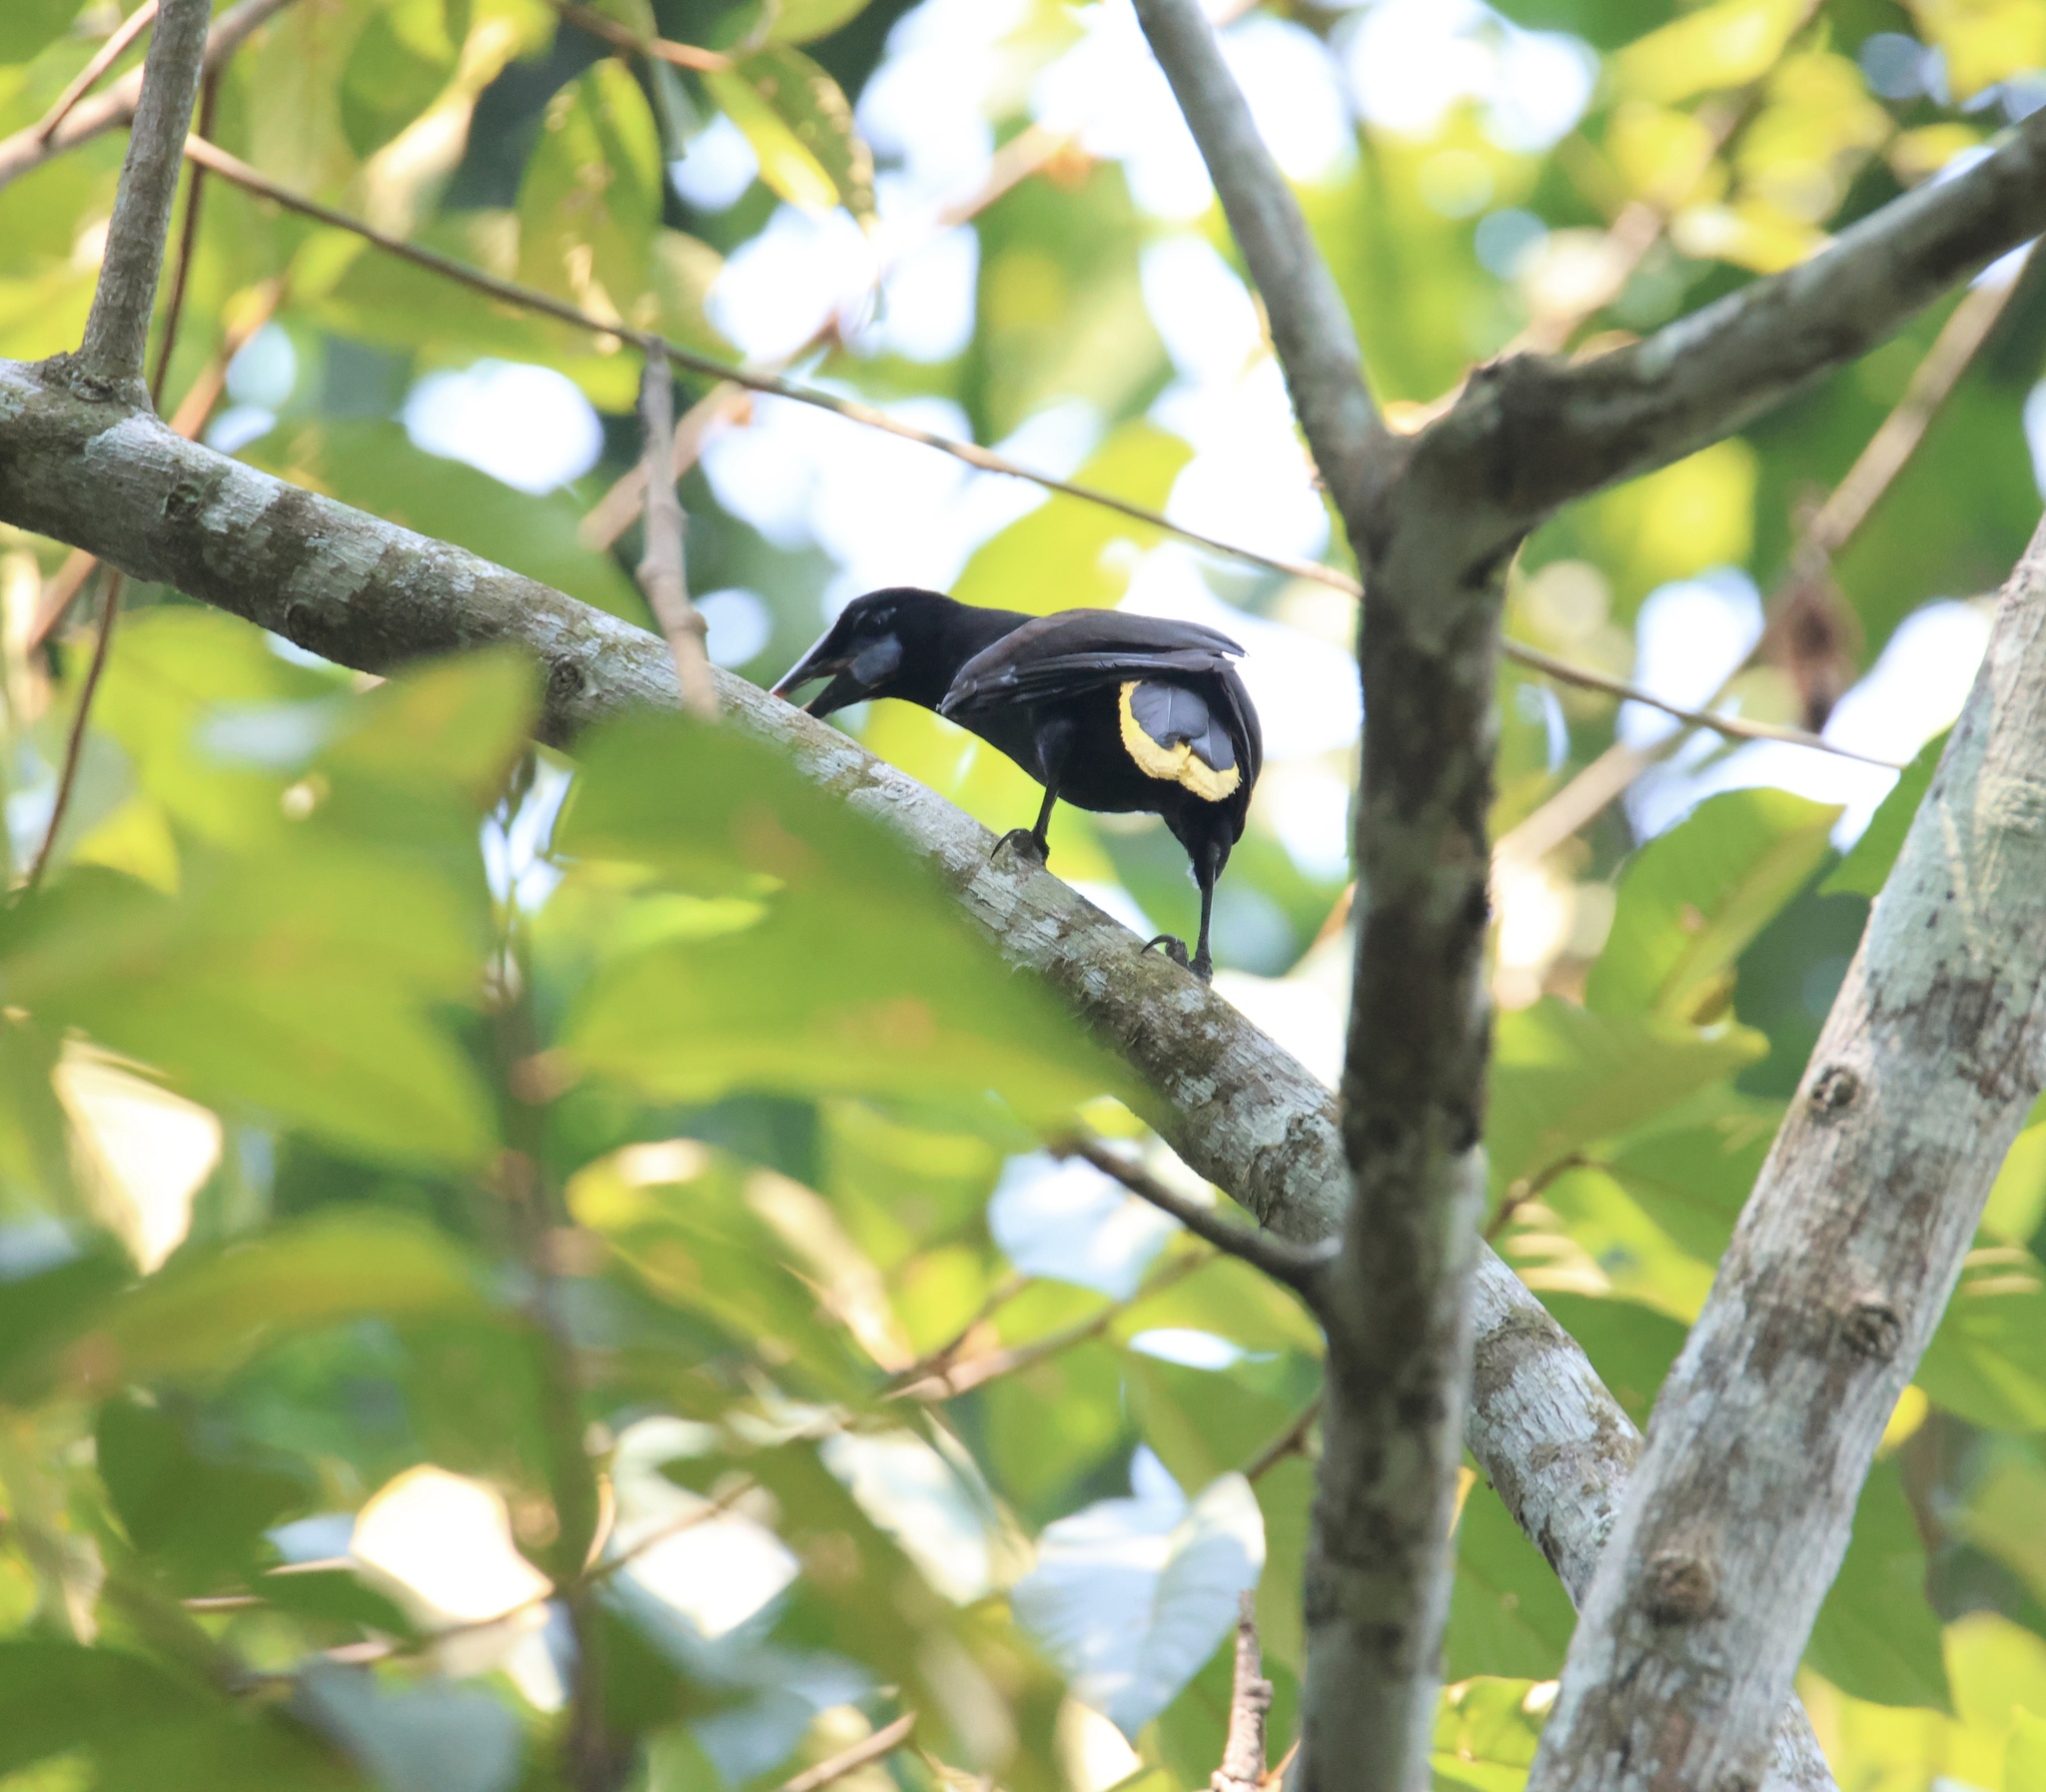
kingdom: Animalia
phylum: Chordata
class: Aves
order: Passeriformes
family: Icteridae
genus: Psarocolius
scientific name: Psarocolius guatimozinus
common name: Black oropendola
